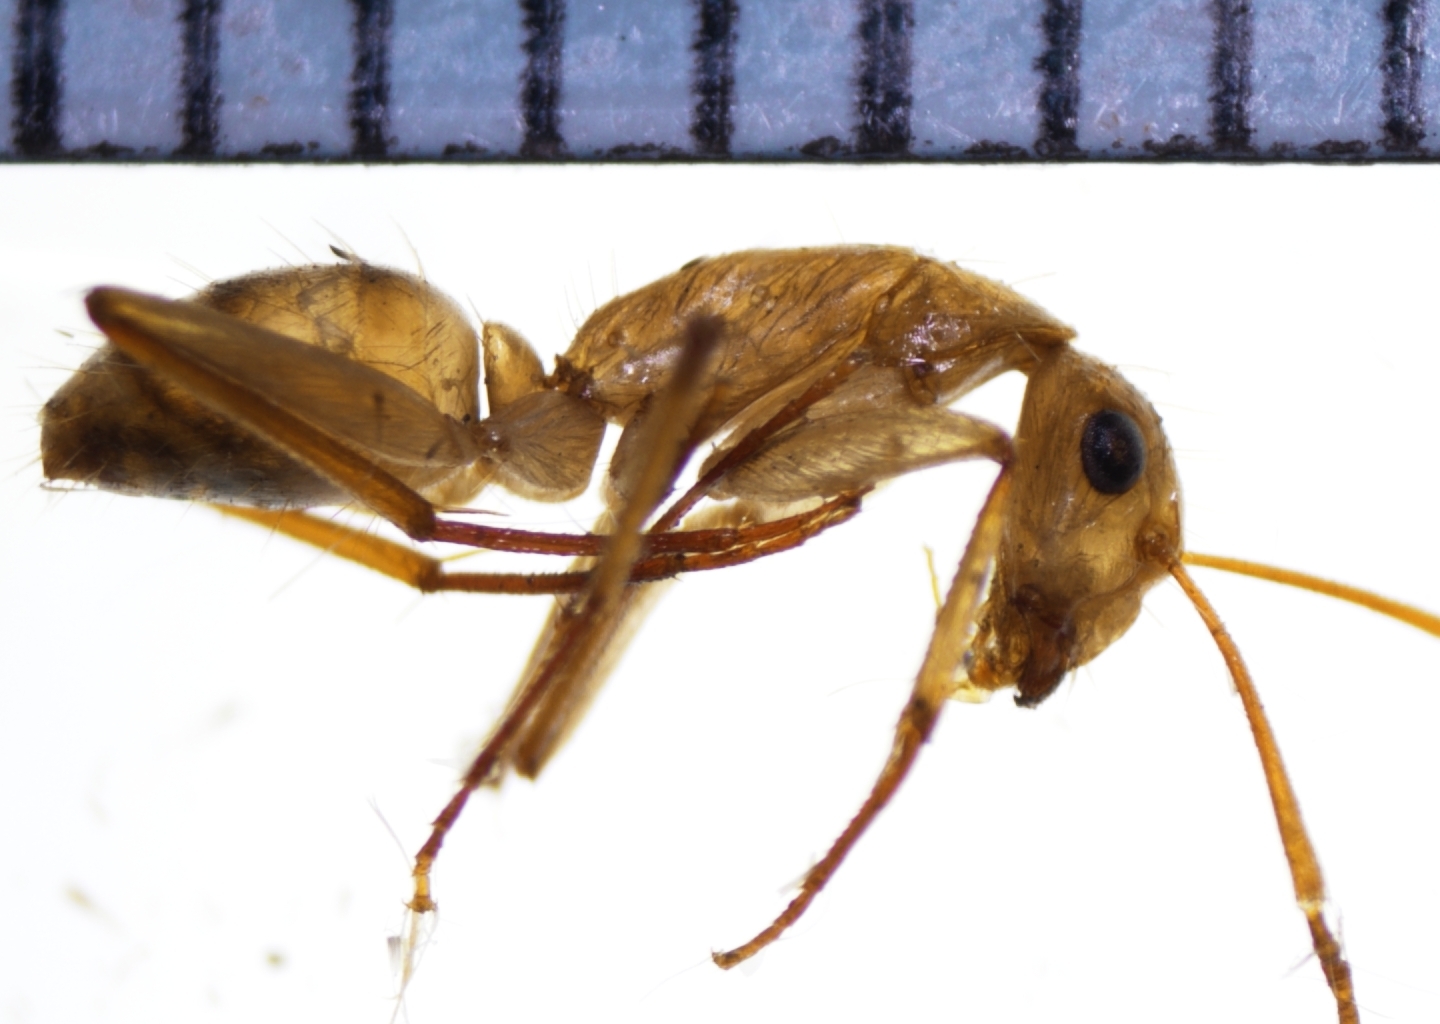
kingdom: Animalia
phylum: Arthropoda
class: Insecta
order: Hymenoptera
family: Formicidae
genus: Camponotus
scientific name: Camponotus chloroticus
